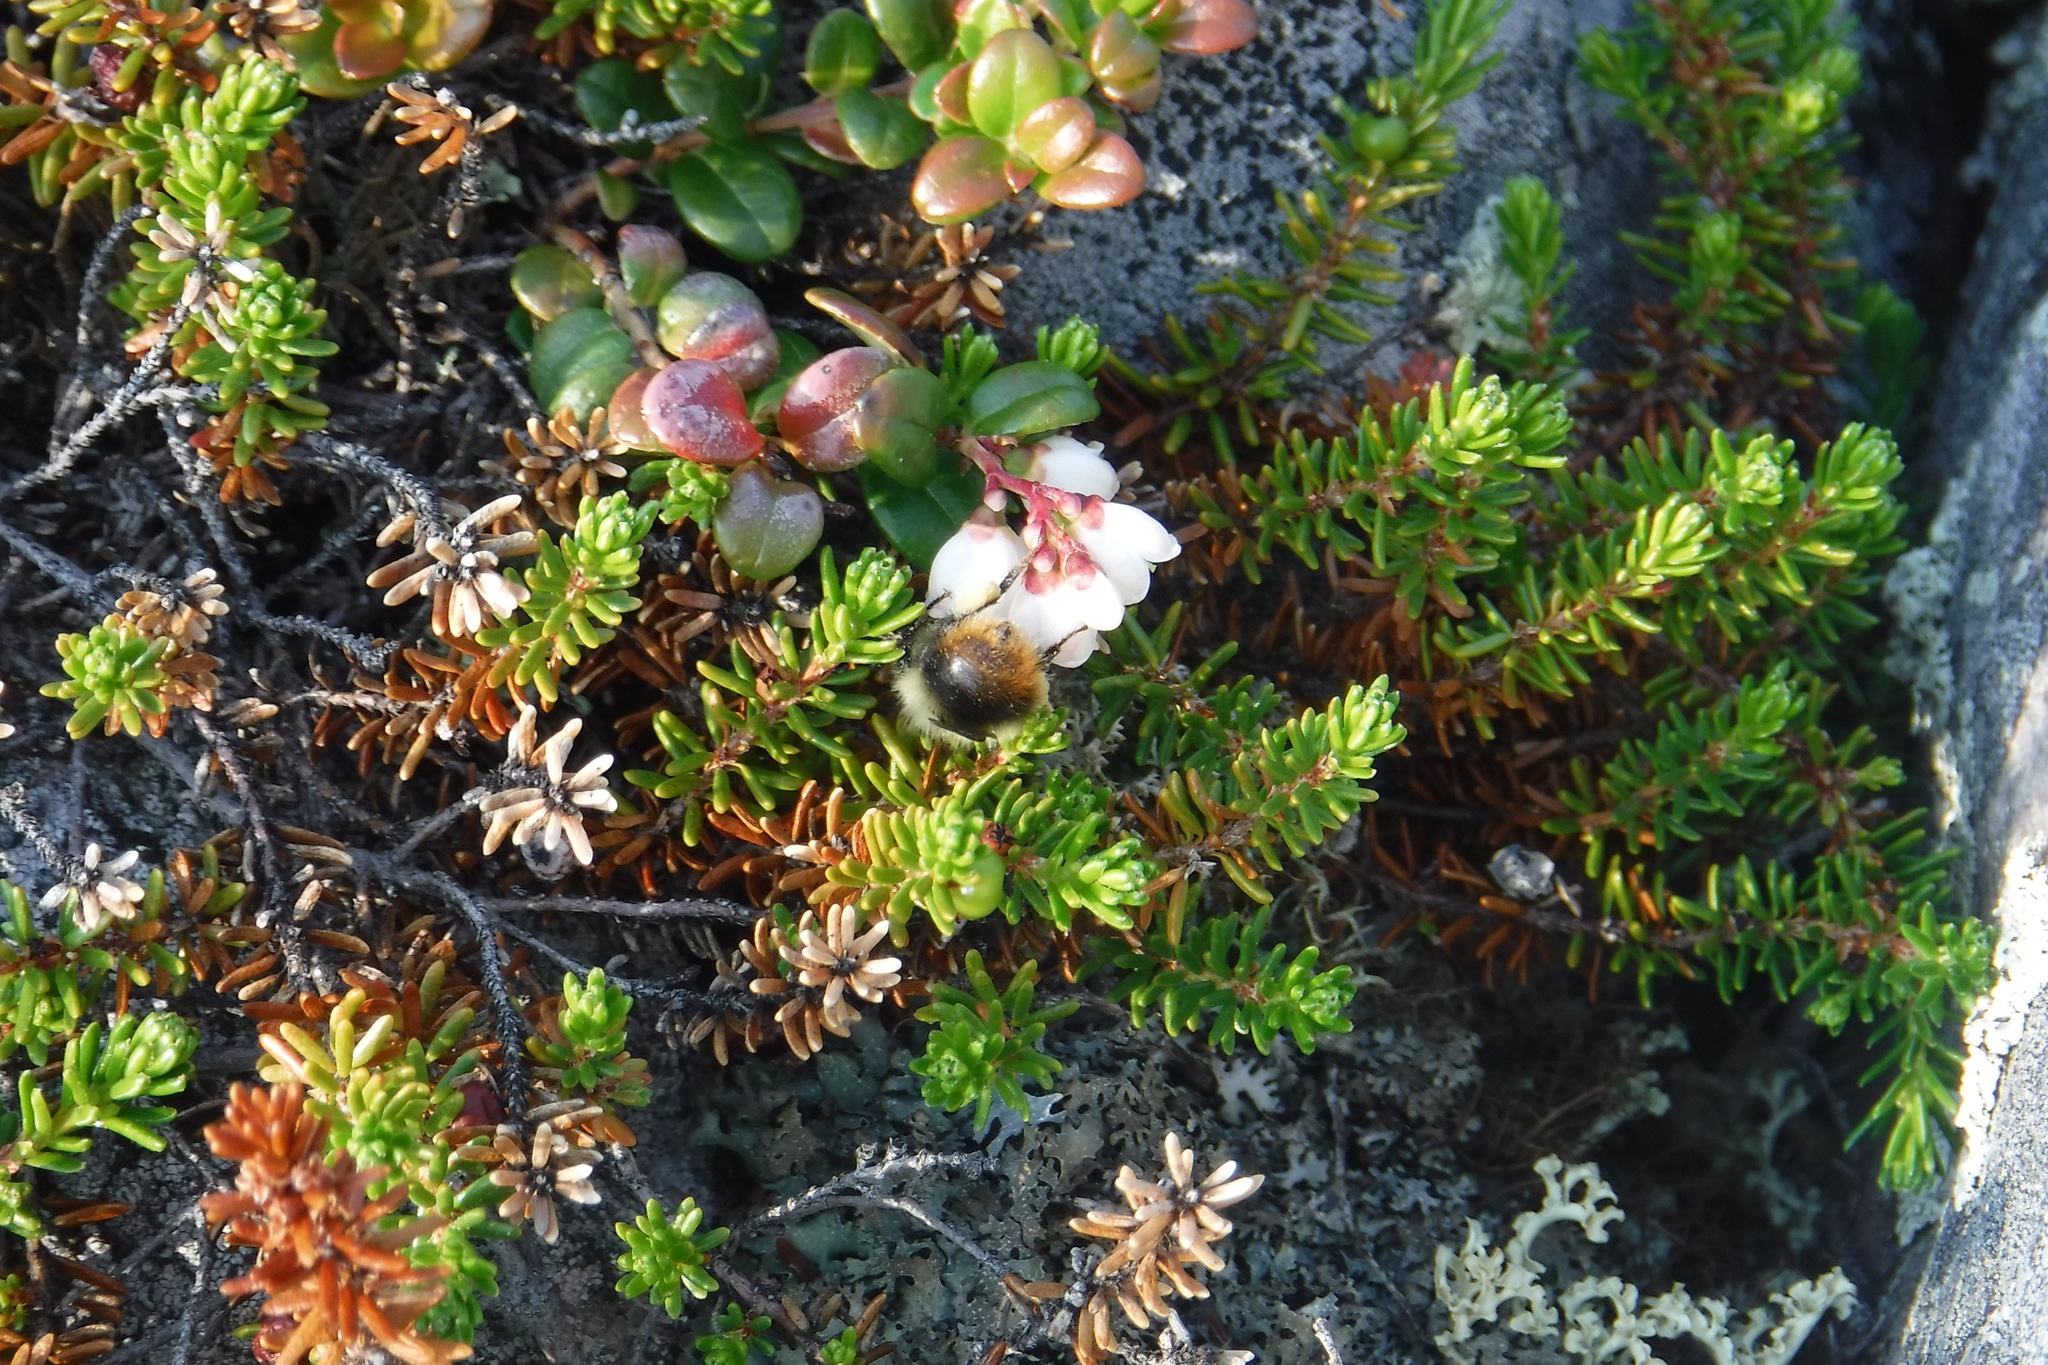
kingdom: Plantae
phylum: Tracheophyta
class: Magnoliopsida
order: Ericales
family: Ericaceae
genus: Vaccinium
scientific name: Vaccinium vitis-idaea
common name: Cowberry
